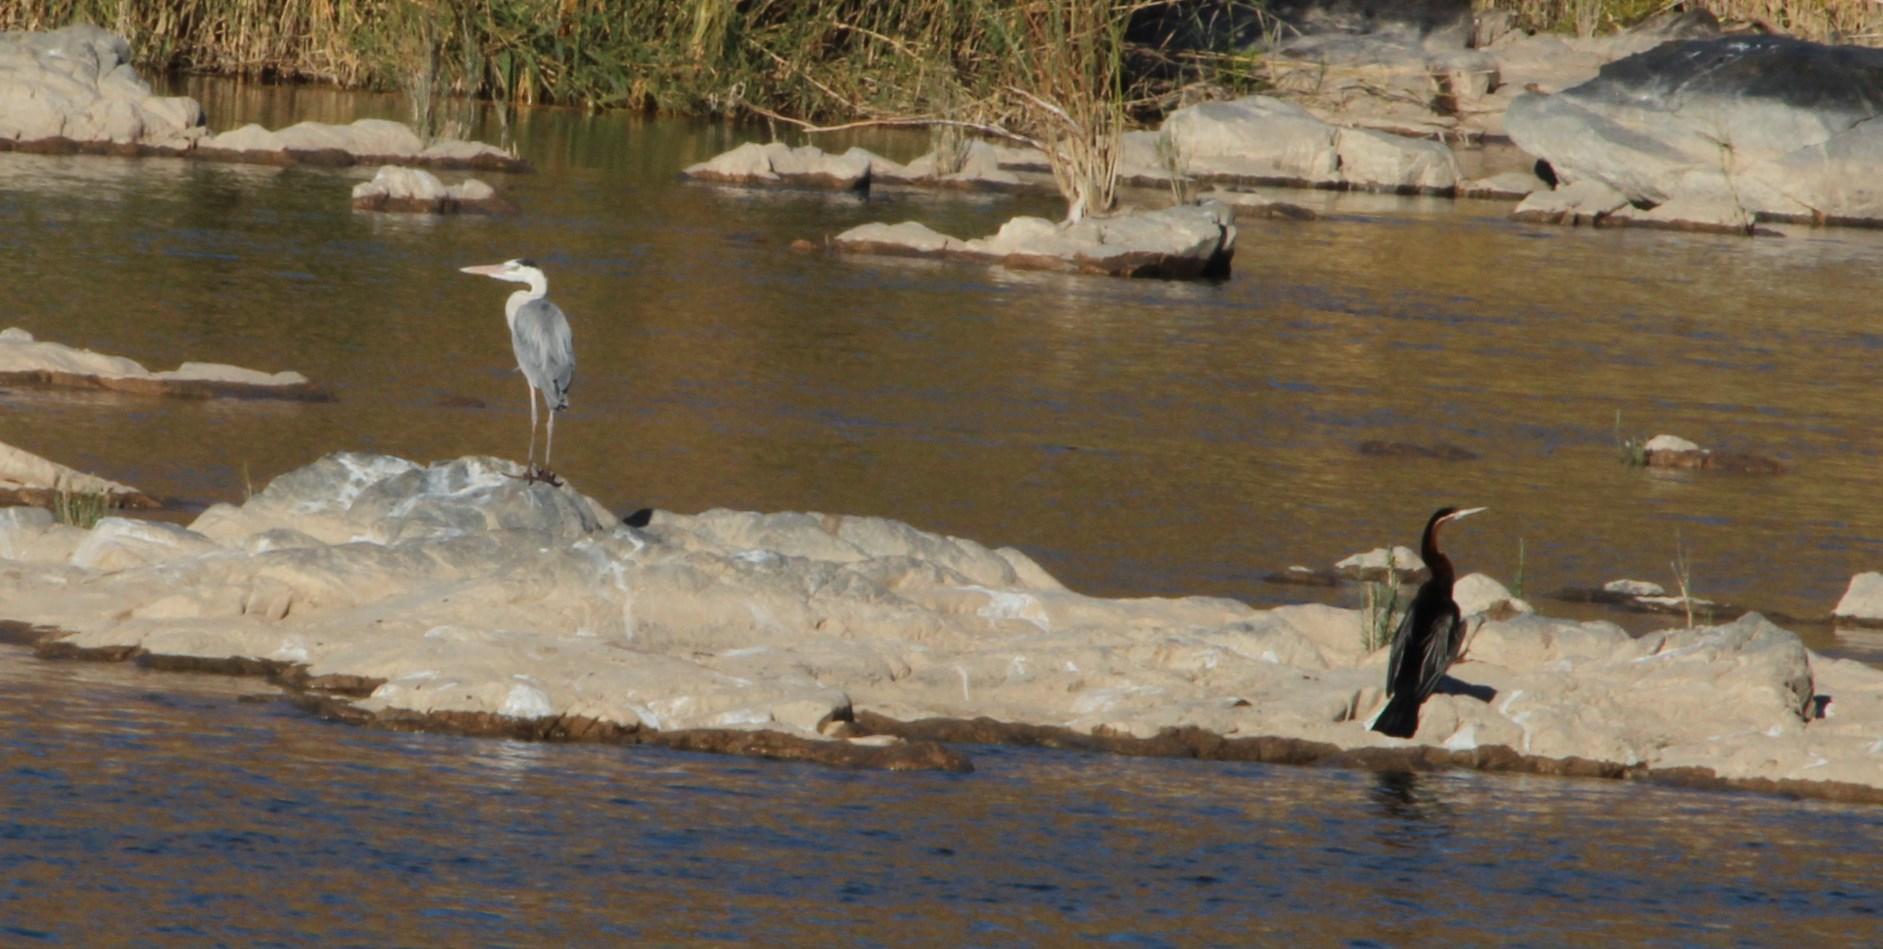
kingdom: Animalia
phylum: Chordata
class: Aves
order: Pelecaniformes
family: Ardeidae
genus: Ardea
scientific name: Ardea cinerea
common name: Grey heron
